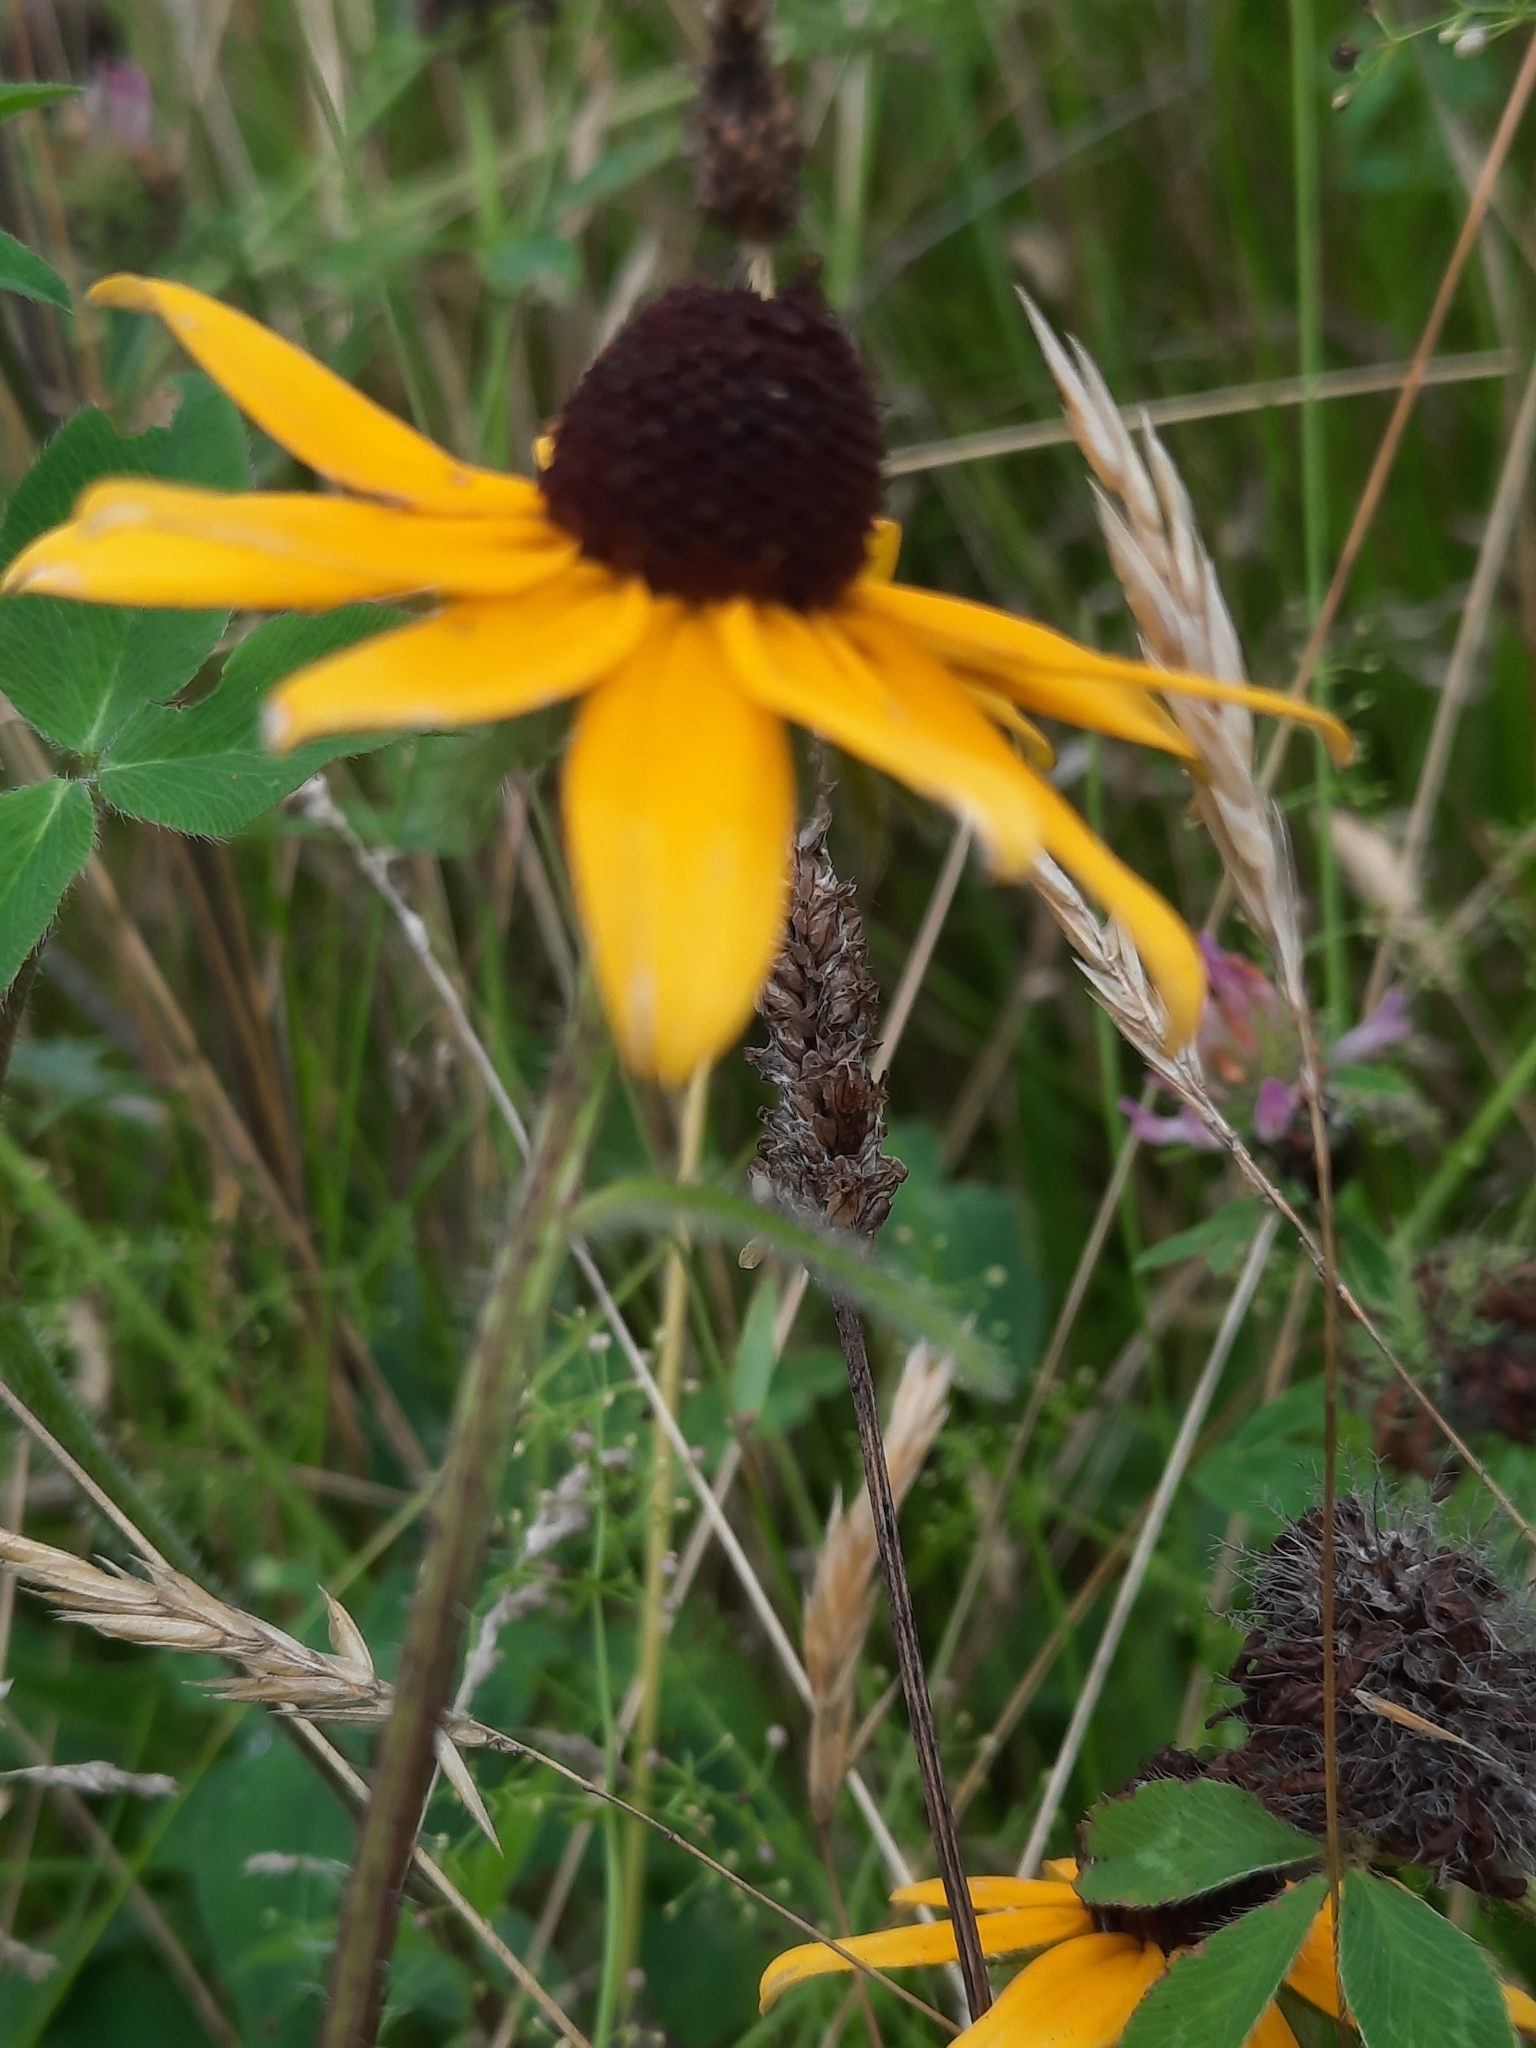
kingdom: Plantae
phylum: Tracheophyta
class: Magnoliopsida
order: Asterales
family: Asteraceae
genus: Rudbeckia
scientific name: Rudbeckia hirta
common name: Black-eyed-susan
